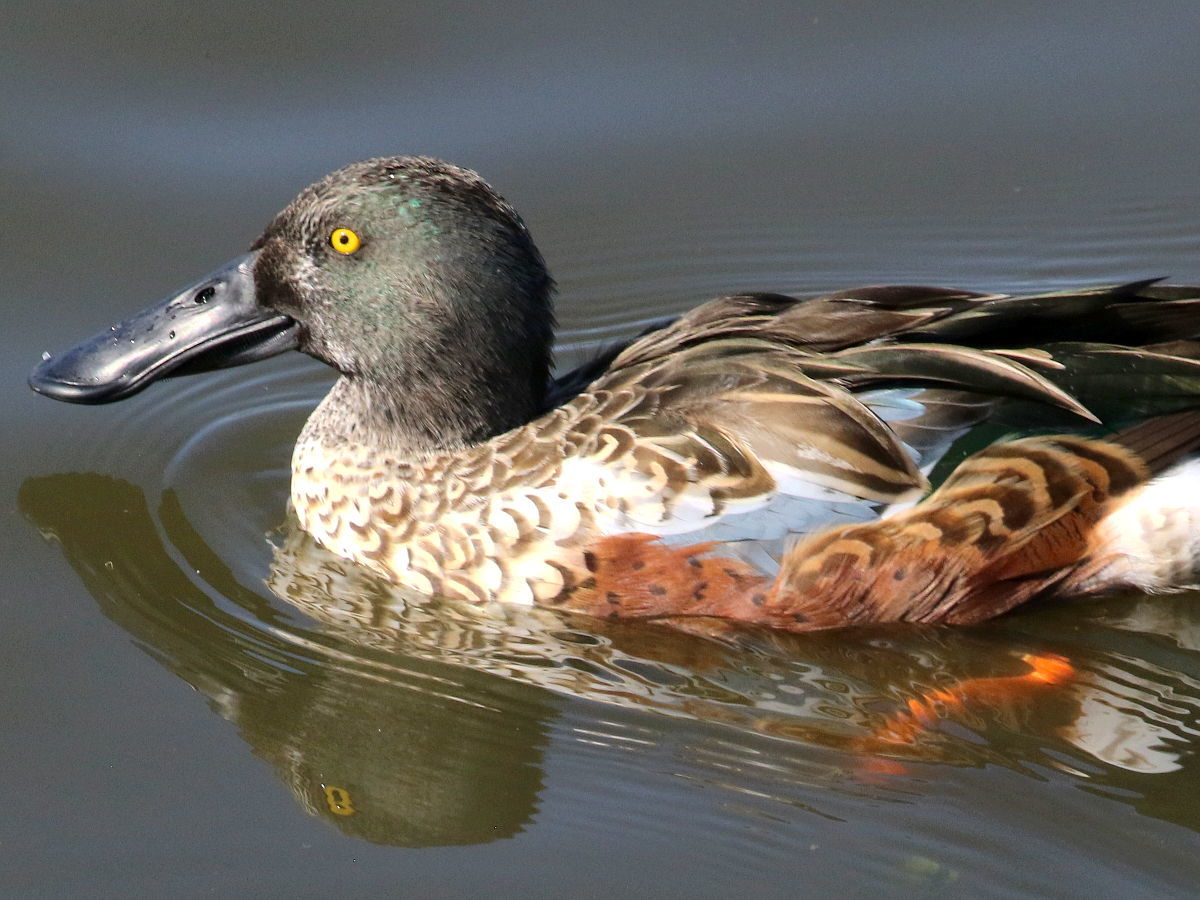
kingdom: Animalia
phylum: Chordata
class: Aves
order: Anseriformes
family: Anatidae
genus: Spatula
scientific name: Spatula clypeata
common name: Northern shoveler
